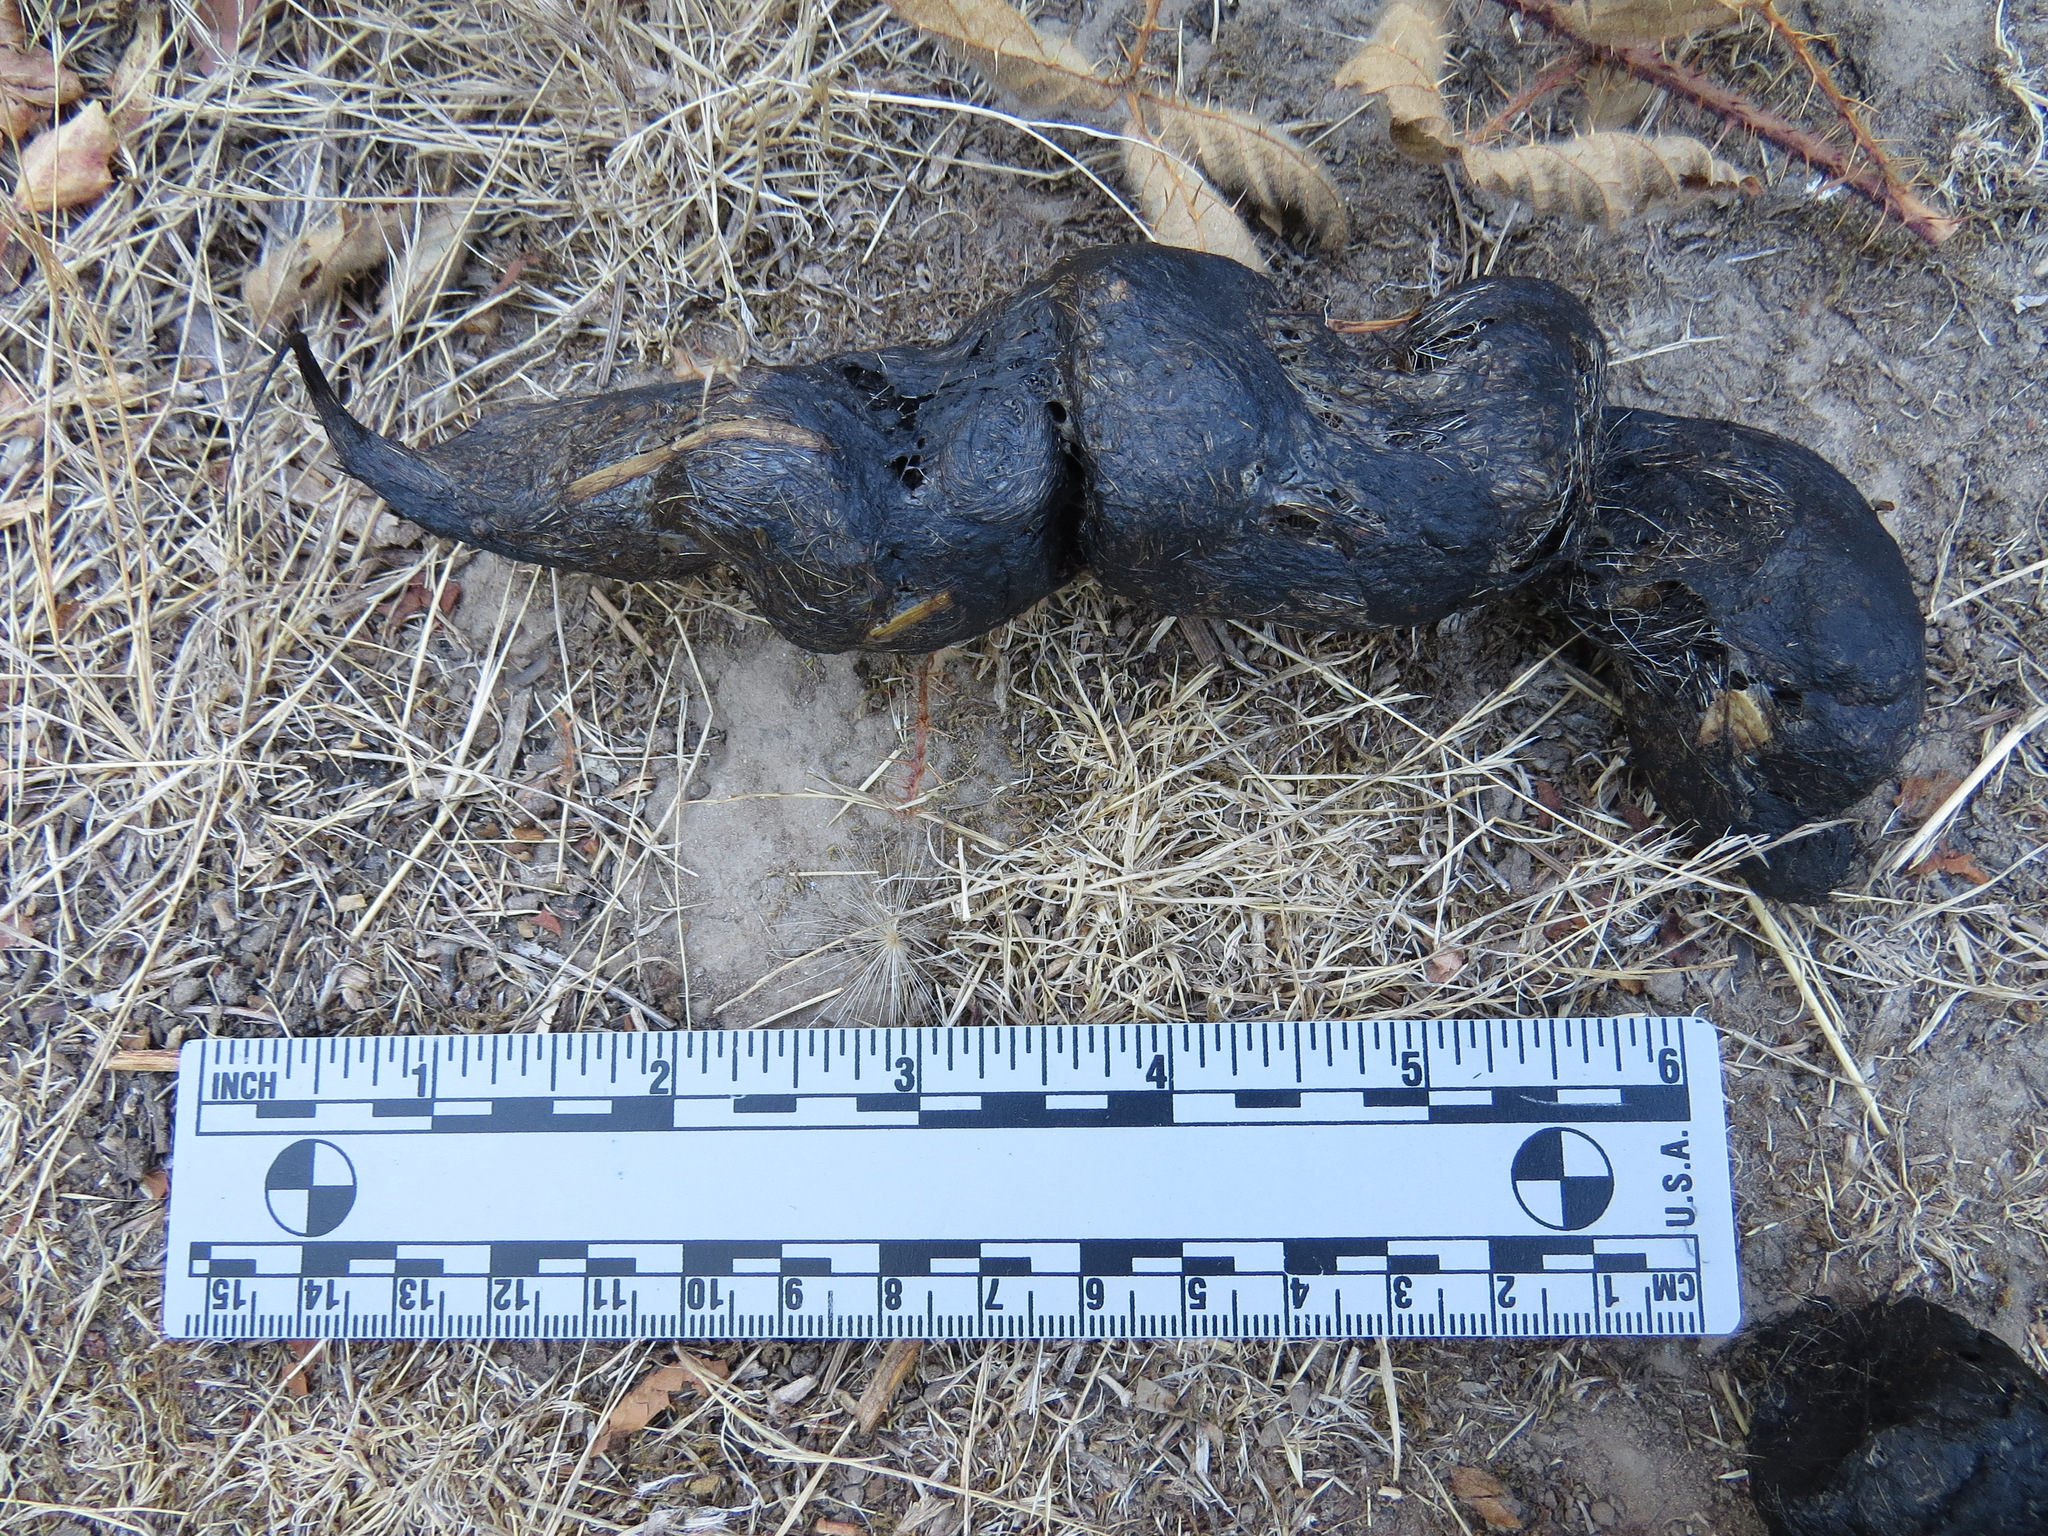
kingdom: Animalia
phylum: Chordata
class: Mammalia
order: Carnivora
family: Felidae
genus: Puma
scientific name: Puma concolor
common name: Puma
